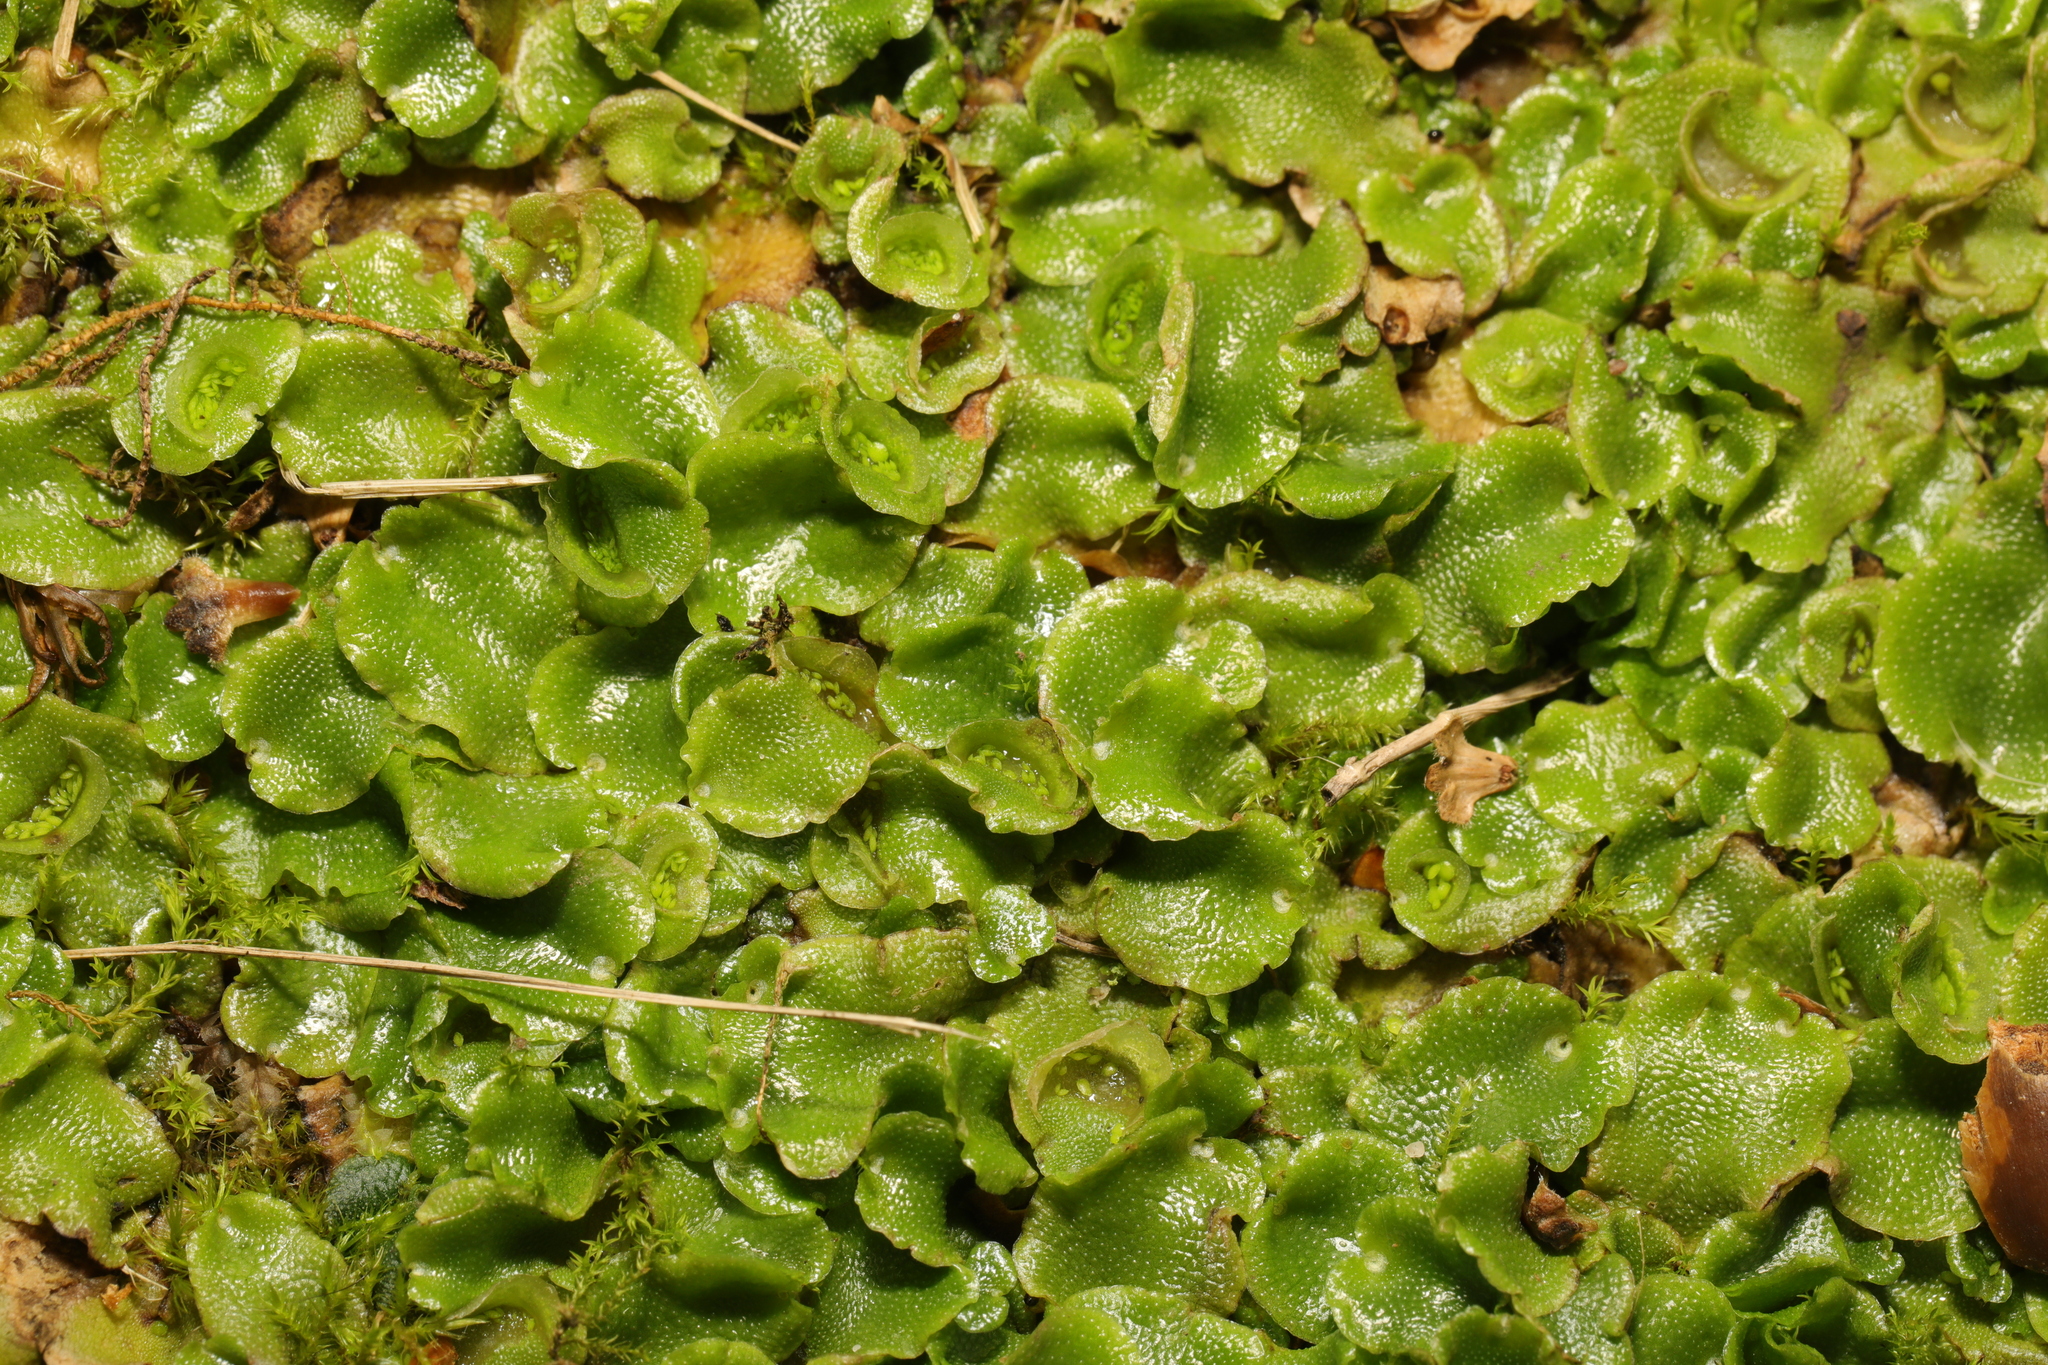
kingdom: Plantae
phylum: Marchantiophyta
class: Marchantiopsida
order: Lunulariales
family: Lunulariaceae
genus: Lunularia
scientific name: Lunularia cruciata
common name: Crescent-cup liverwort
